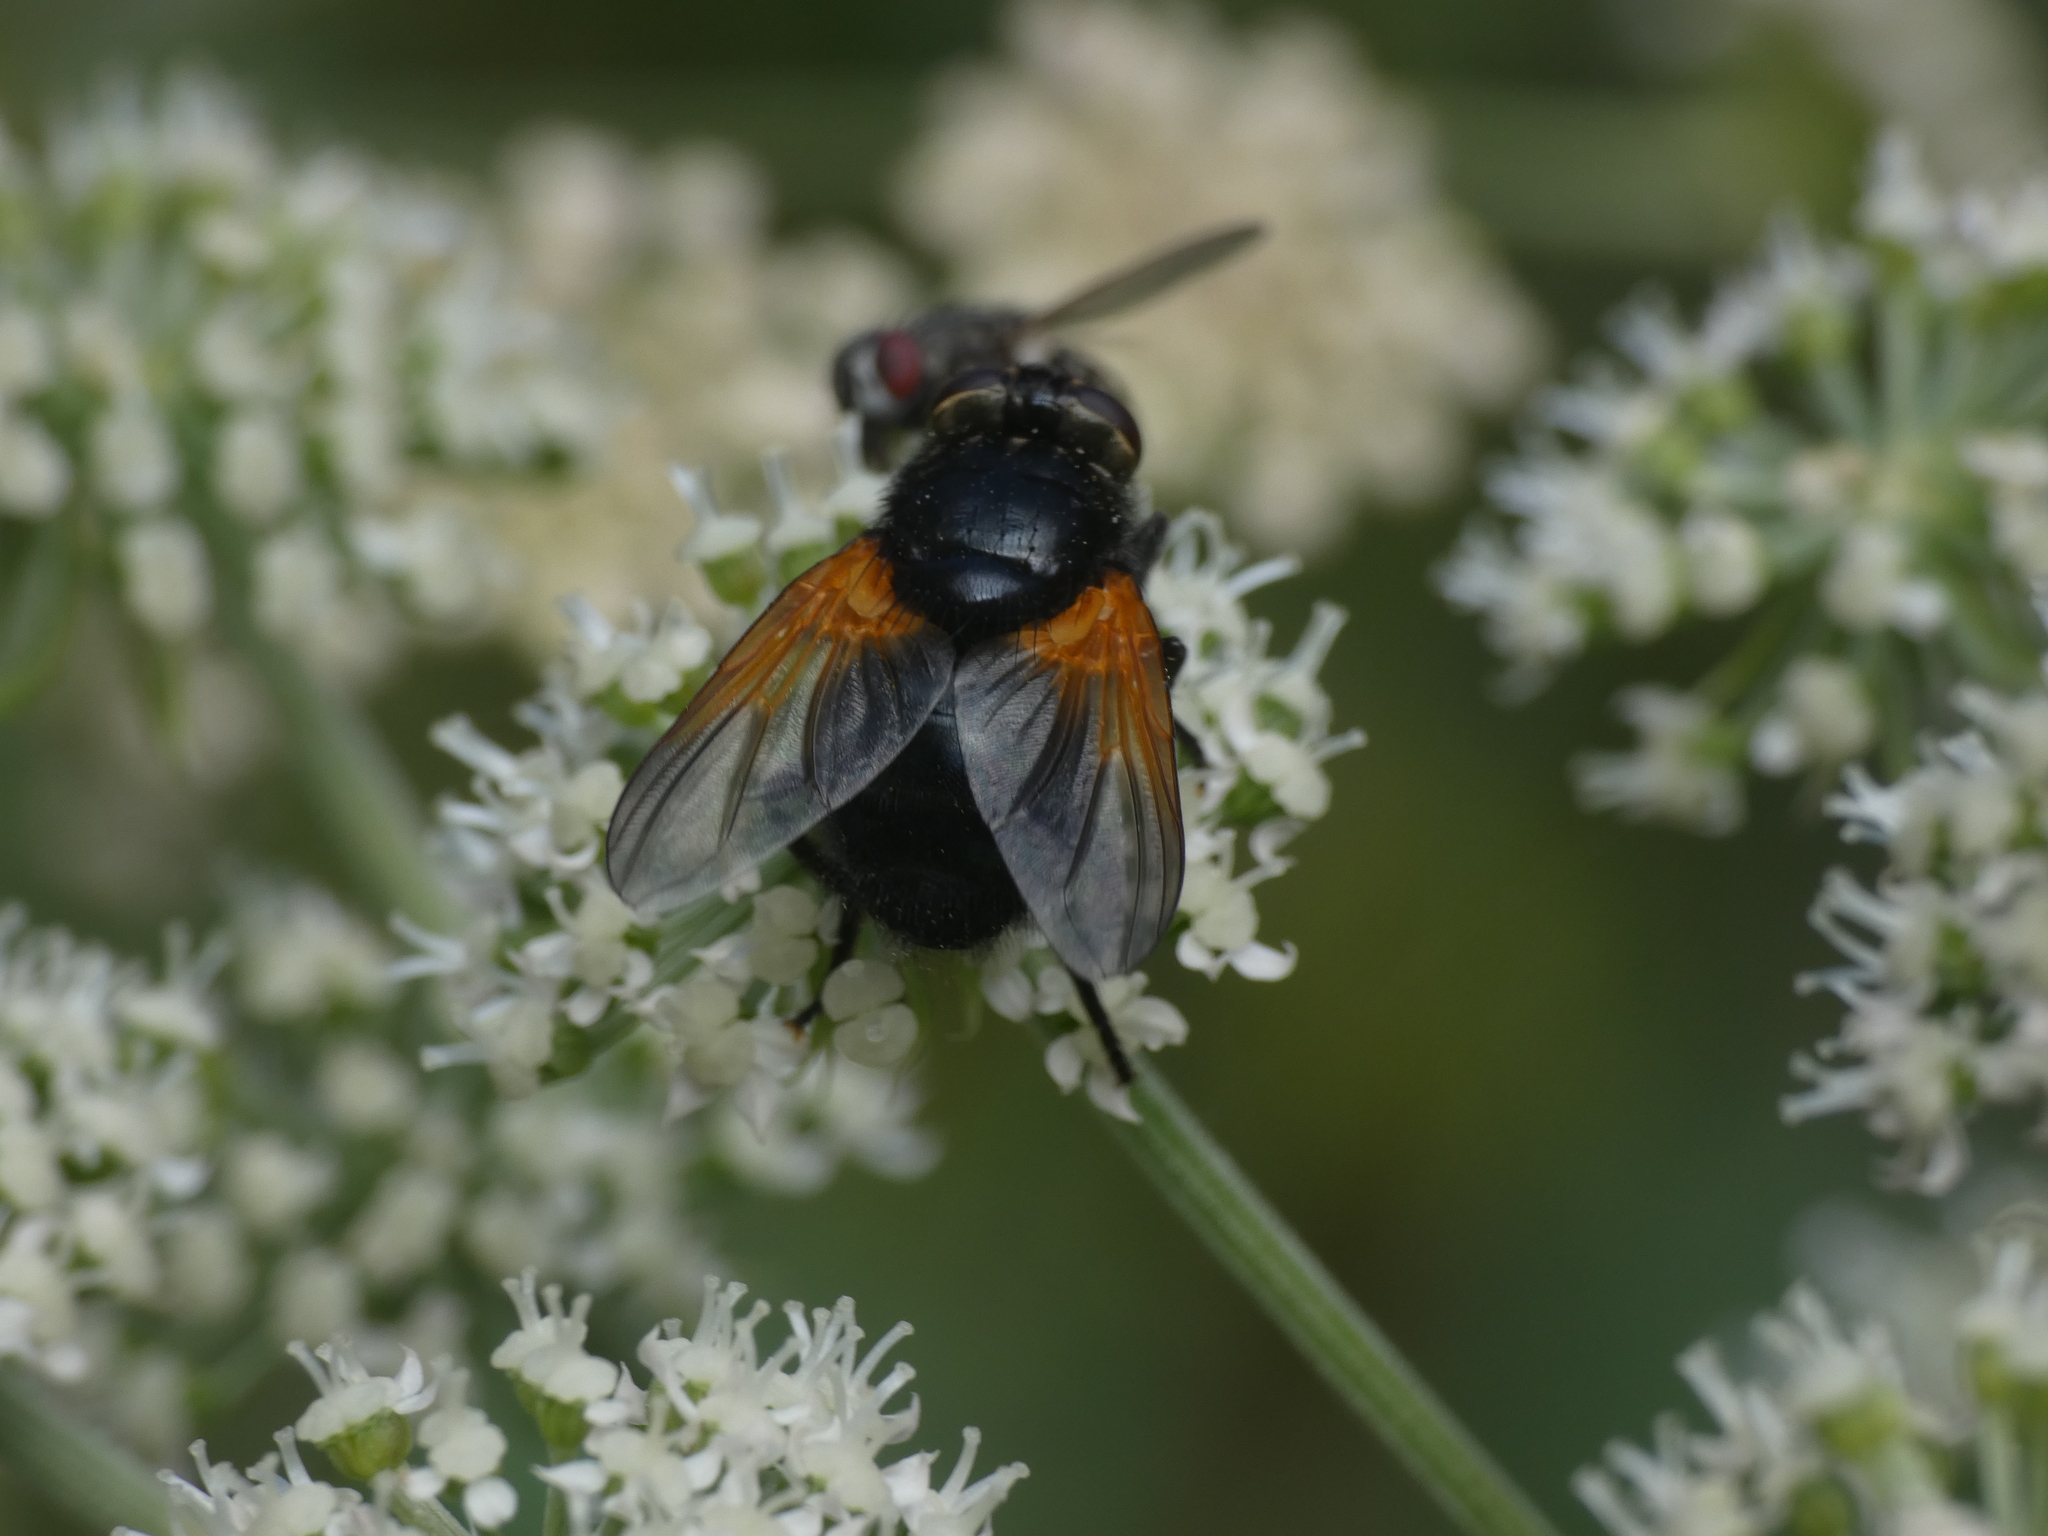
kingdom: Animalia
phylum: Arthropoda
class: Insecta
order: Diptera
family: Muscidae
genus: Mesembrina
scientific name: Mesembrina meridiana
